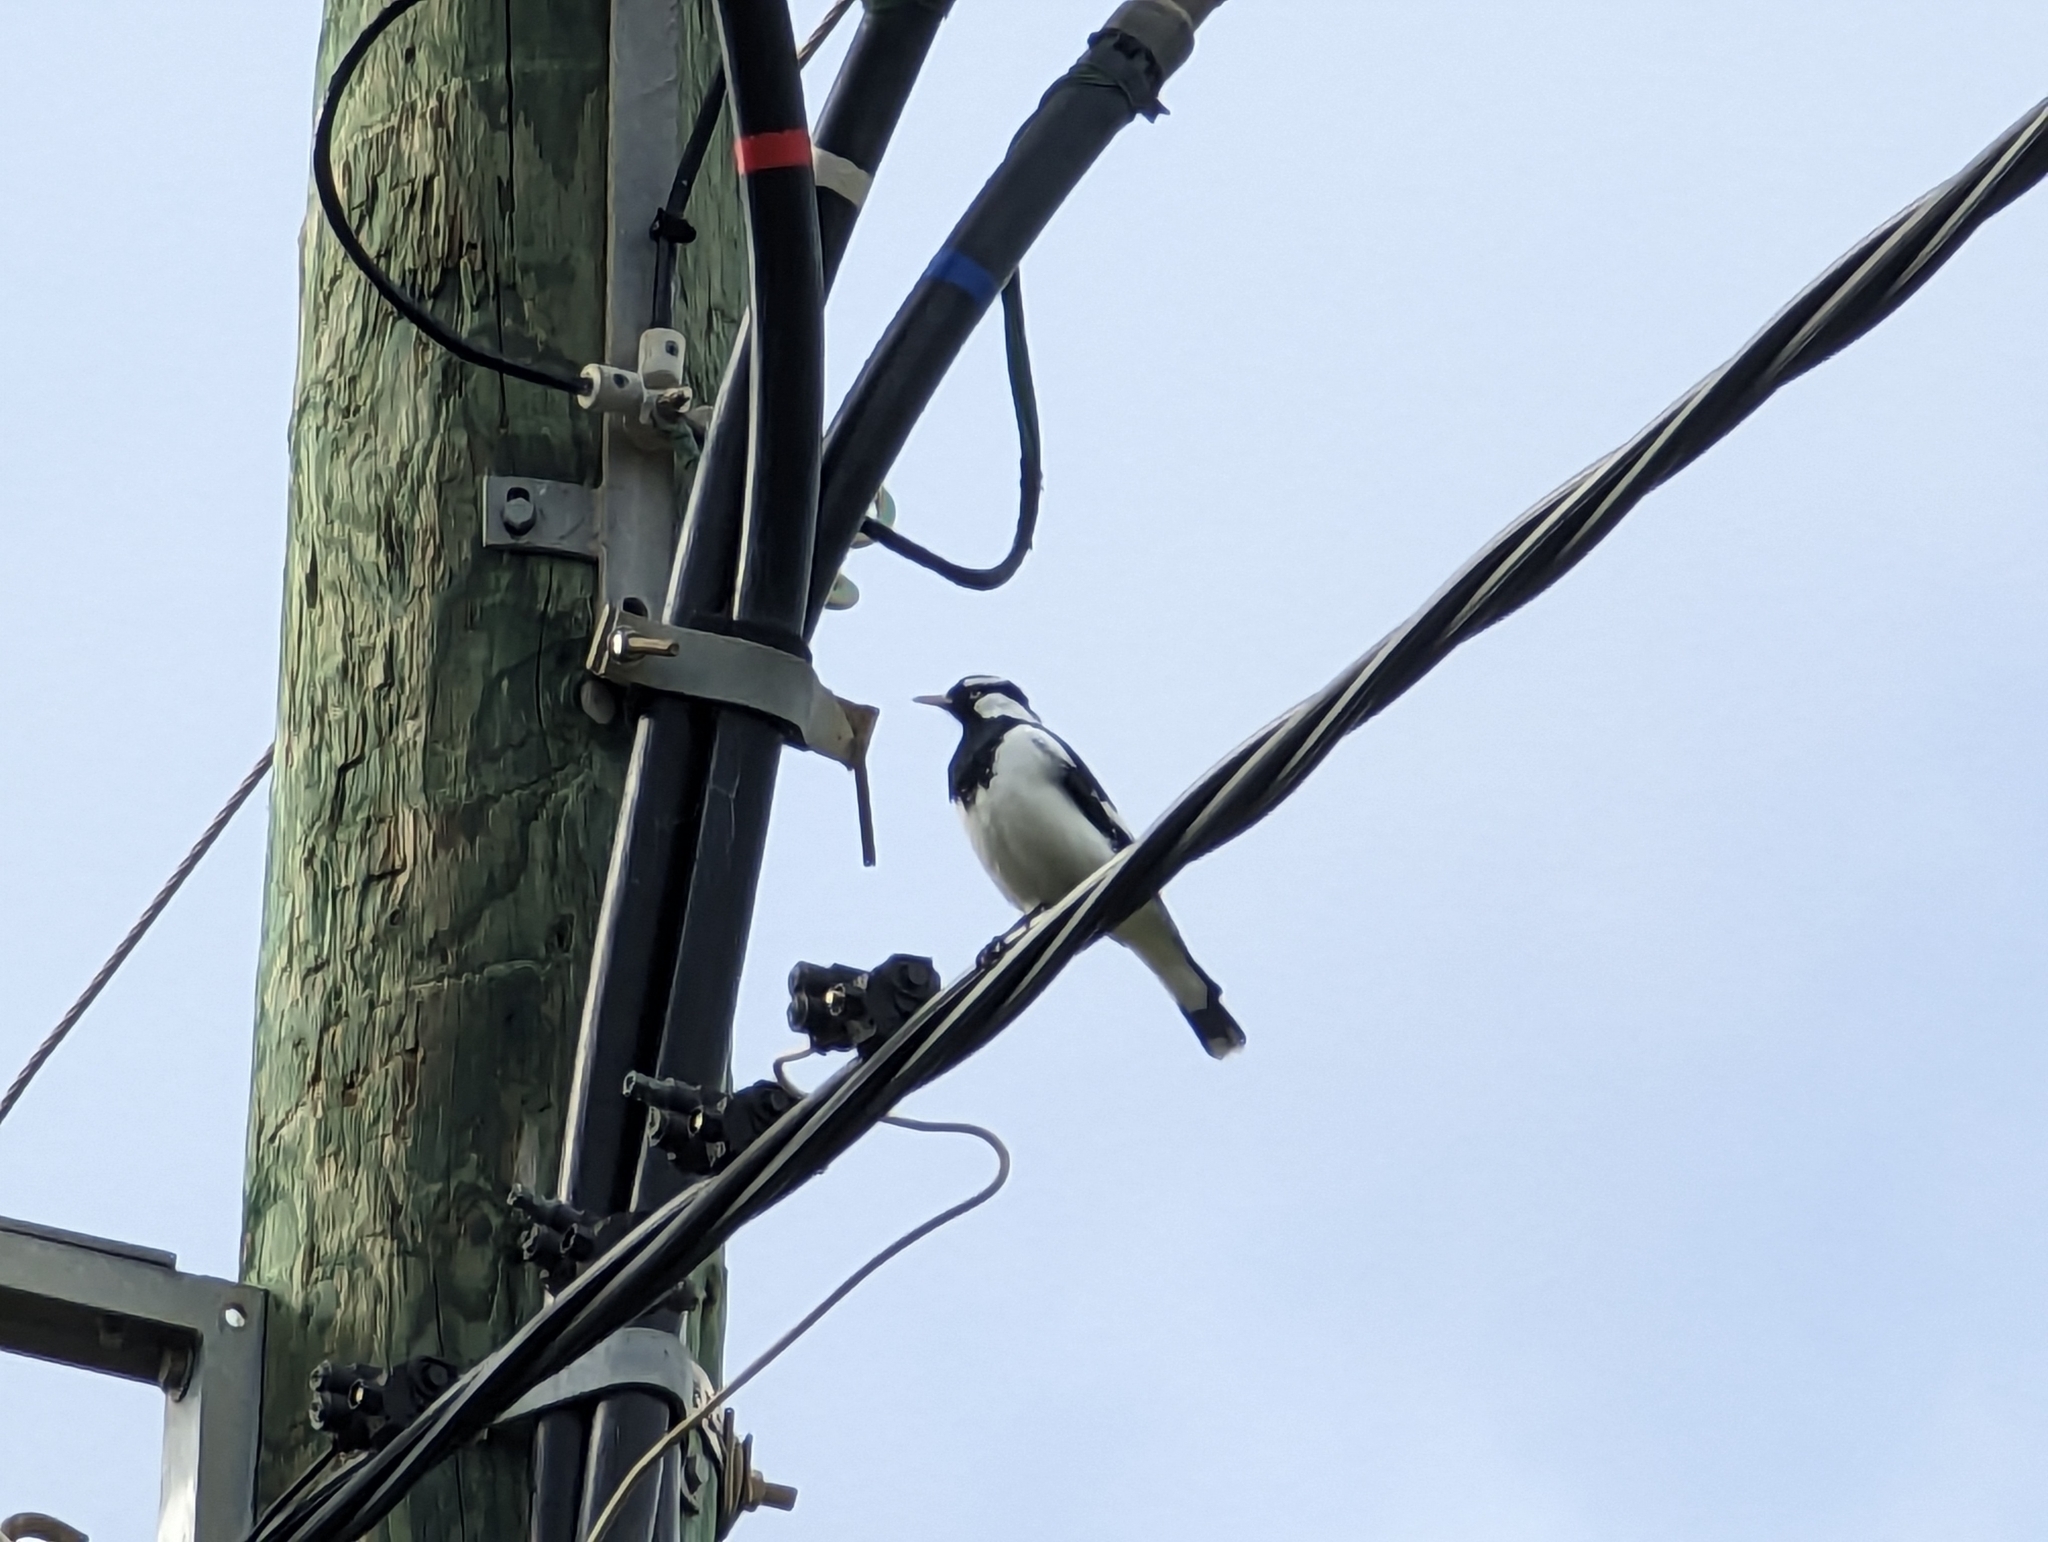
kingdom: Animalia
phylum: Chordata
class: Aves
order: Passeriformes
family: Monarchidae
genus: Grallina
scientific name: Grallina cyanoleuca
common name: Magpie-lark
